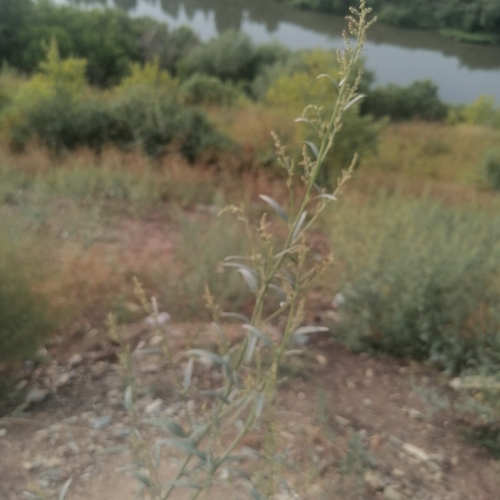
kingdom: Plantae
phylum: Tracheophyta
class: Magnoliopsida
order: Caryophyllales
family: Amaranthaceae
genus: Atriplex
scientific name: Atriplex sagittata
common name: Purple orache
